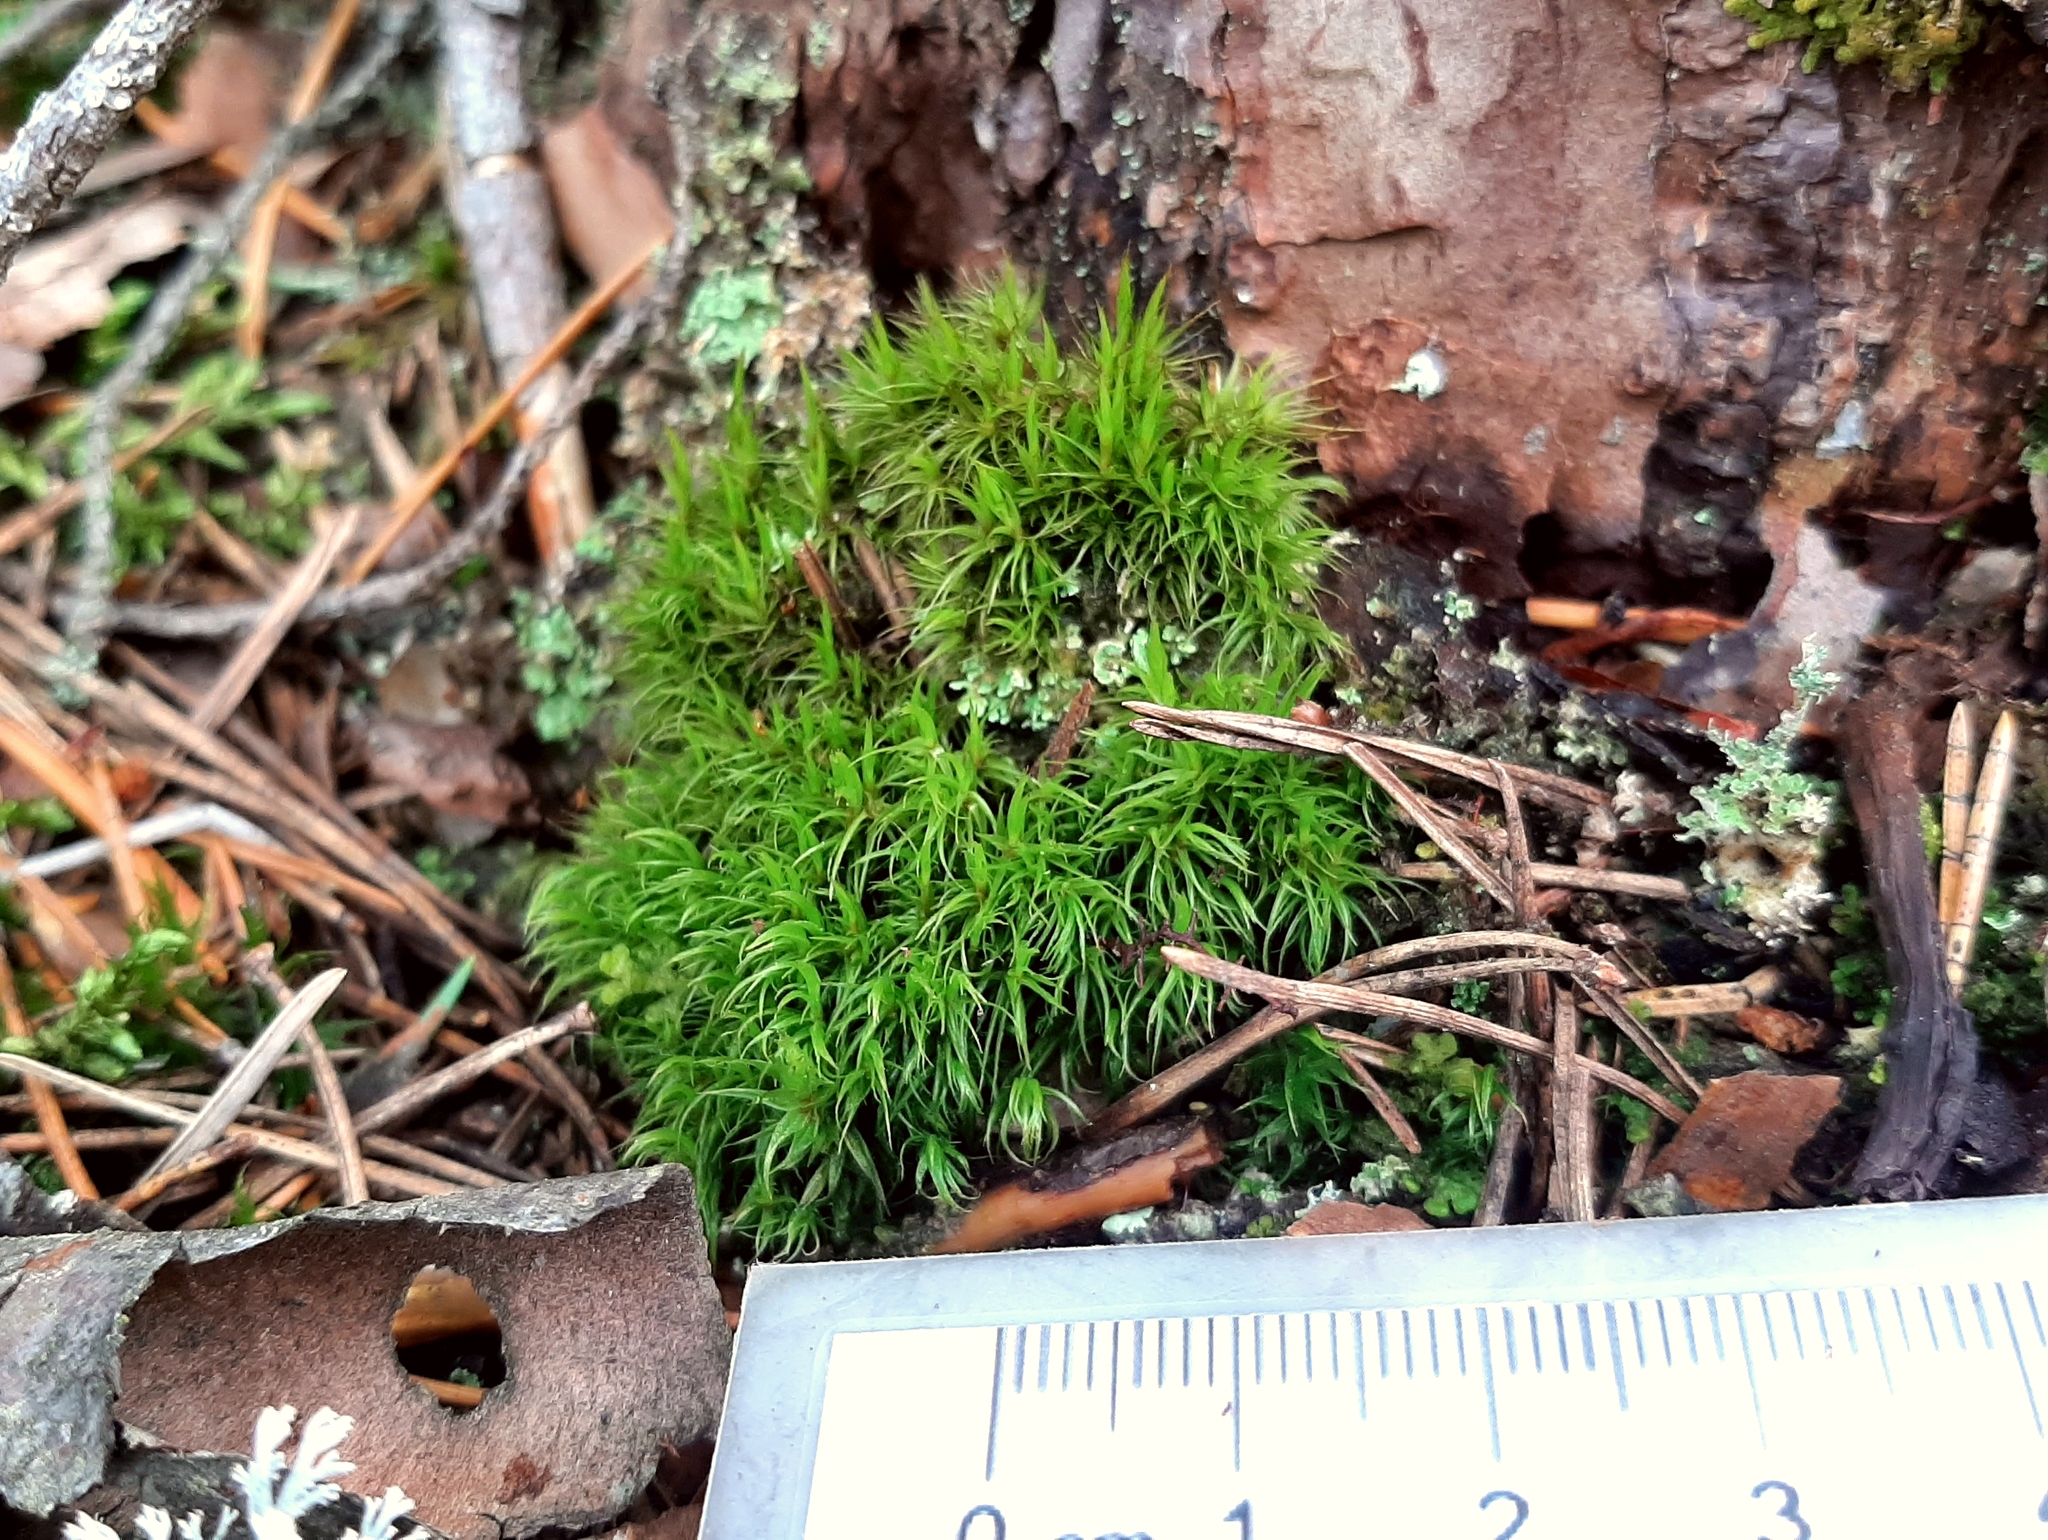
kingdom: Protozoa
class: Filosia
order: Aconchulinida
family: Euglyphidae
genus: Euglypha
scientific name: Euglypha compressa
